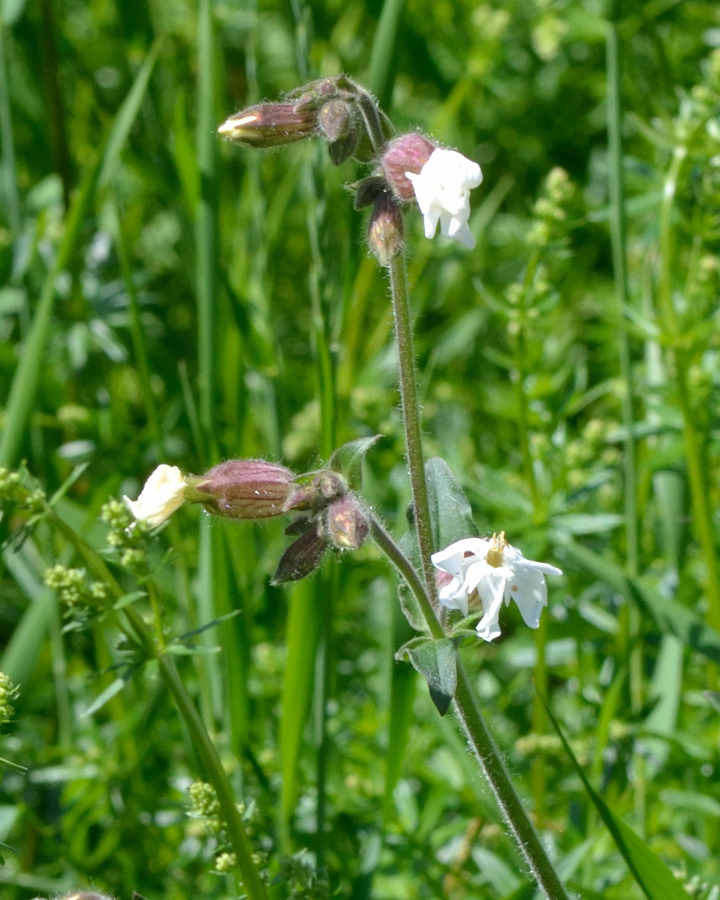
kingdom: Plantae
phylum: Tracheophyta
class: Magnoliopsida
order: Caryophyllales
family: Caryophyllaceae
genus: Silene
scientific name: Silene latifolia
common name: White campion
